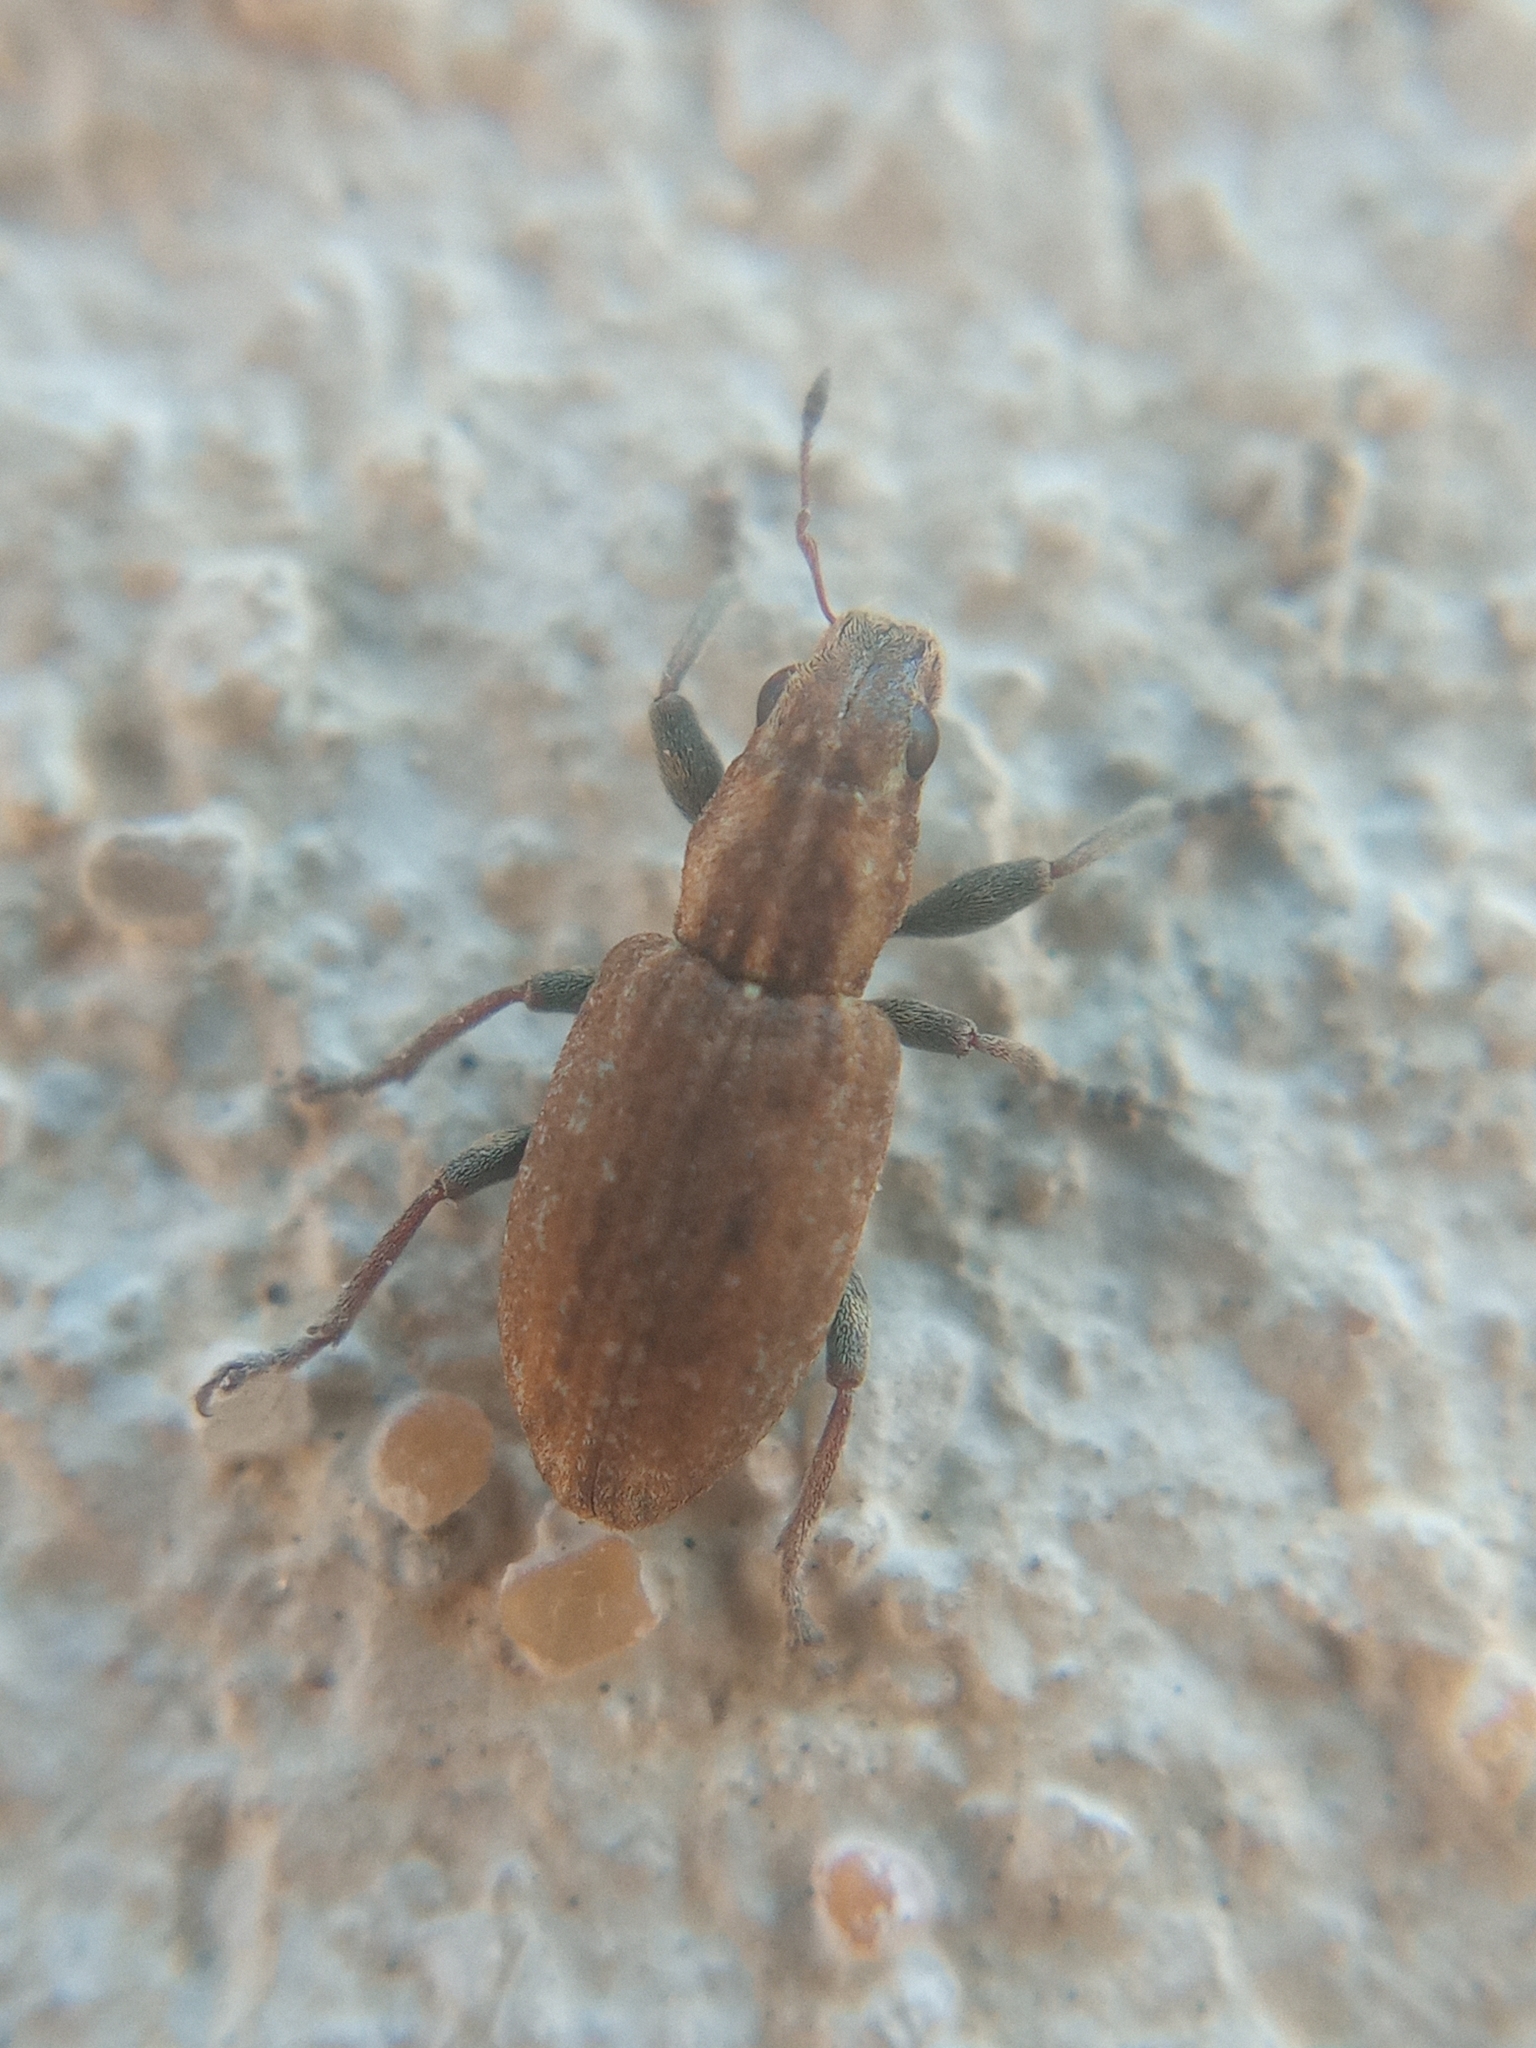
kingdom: Animalia
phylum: Arthropoda
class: Insecta
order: Coleoptera
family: Curculionidae
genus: Sitona
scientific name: Sitona obsoletus
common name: Weevil
